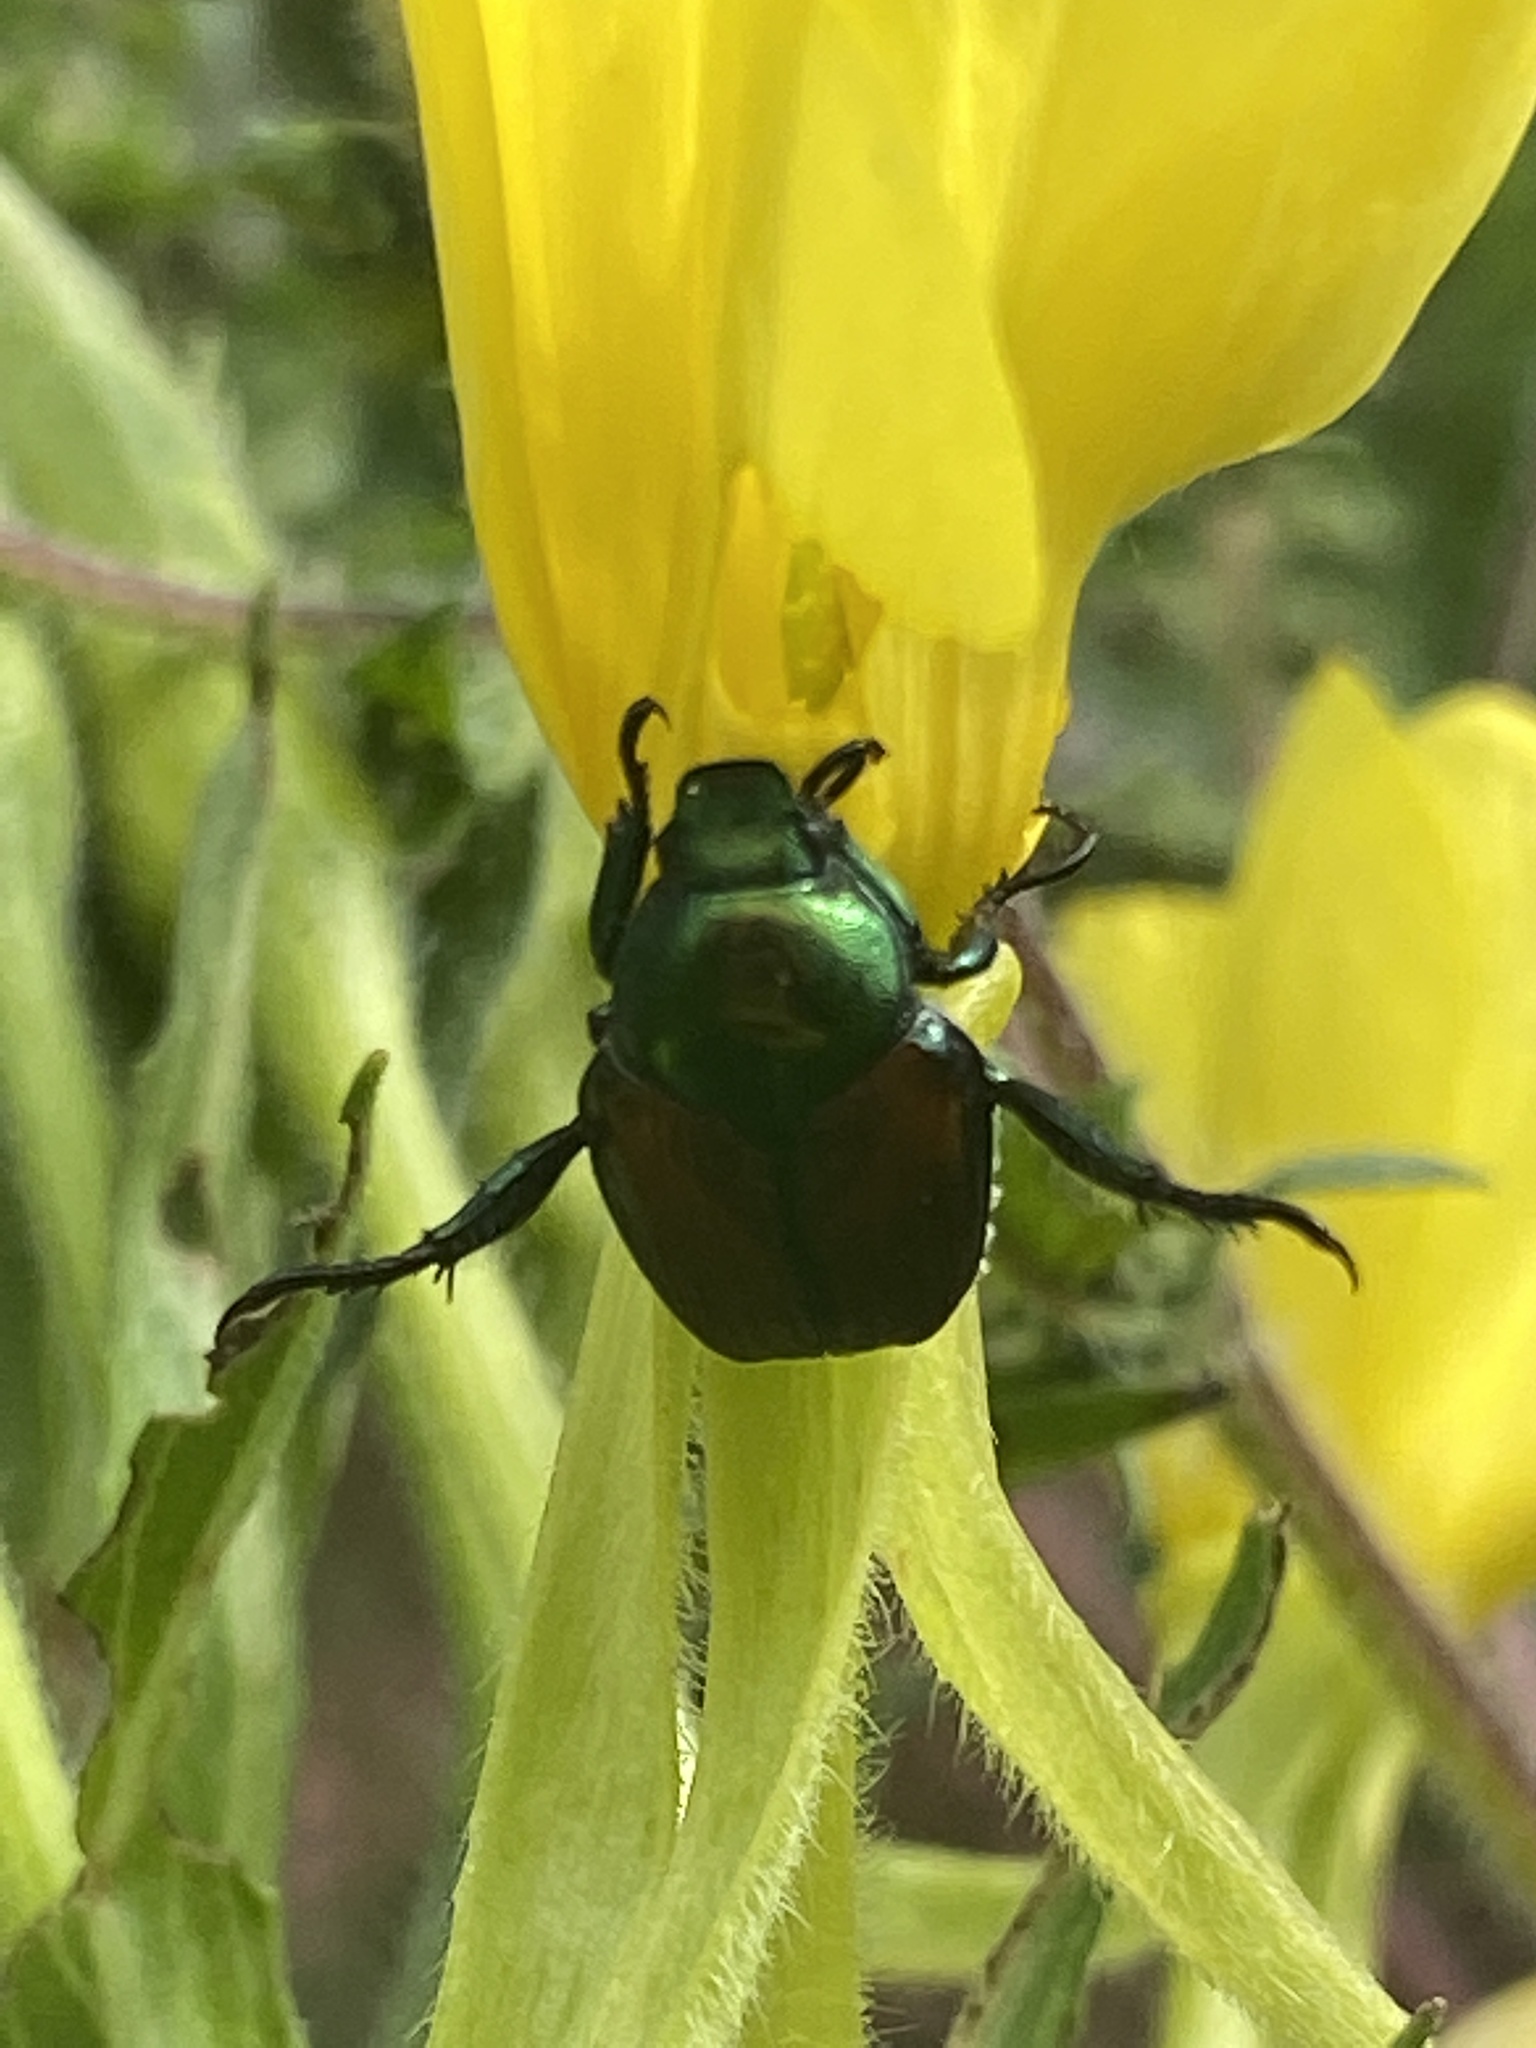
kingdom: Animalia
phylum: Arthropoda
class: Insecta
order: Coleoptera
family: Scarabaeidae
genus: Popillia
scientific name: Popillia japonica
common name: Japanese beetle
